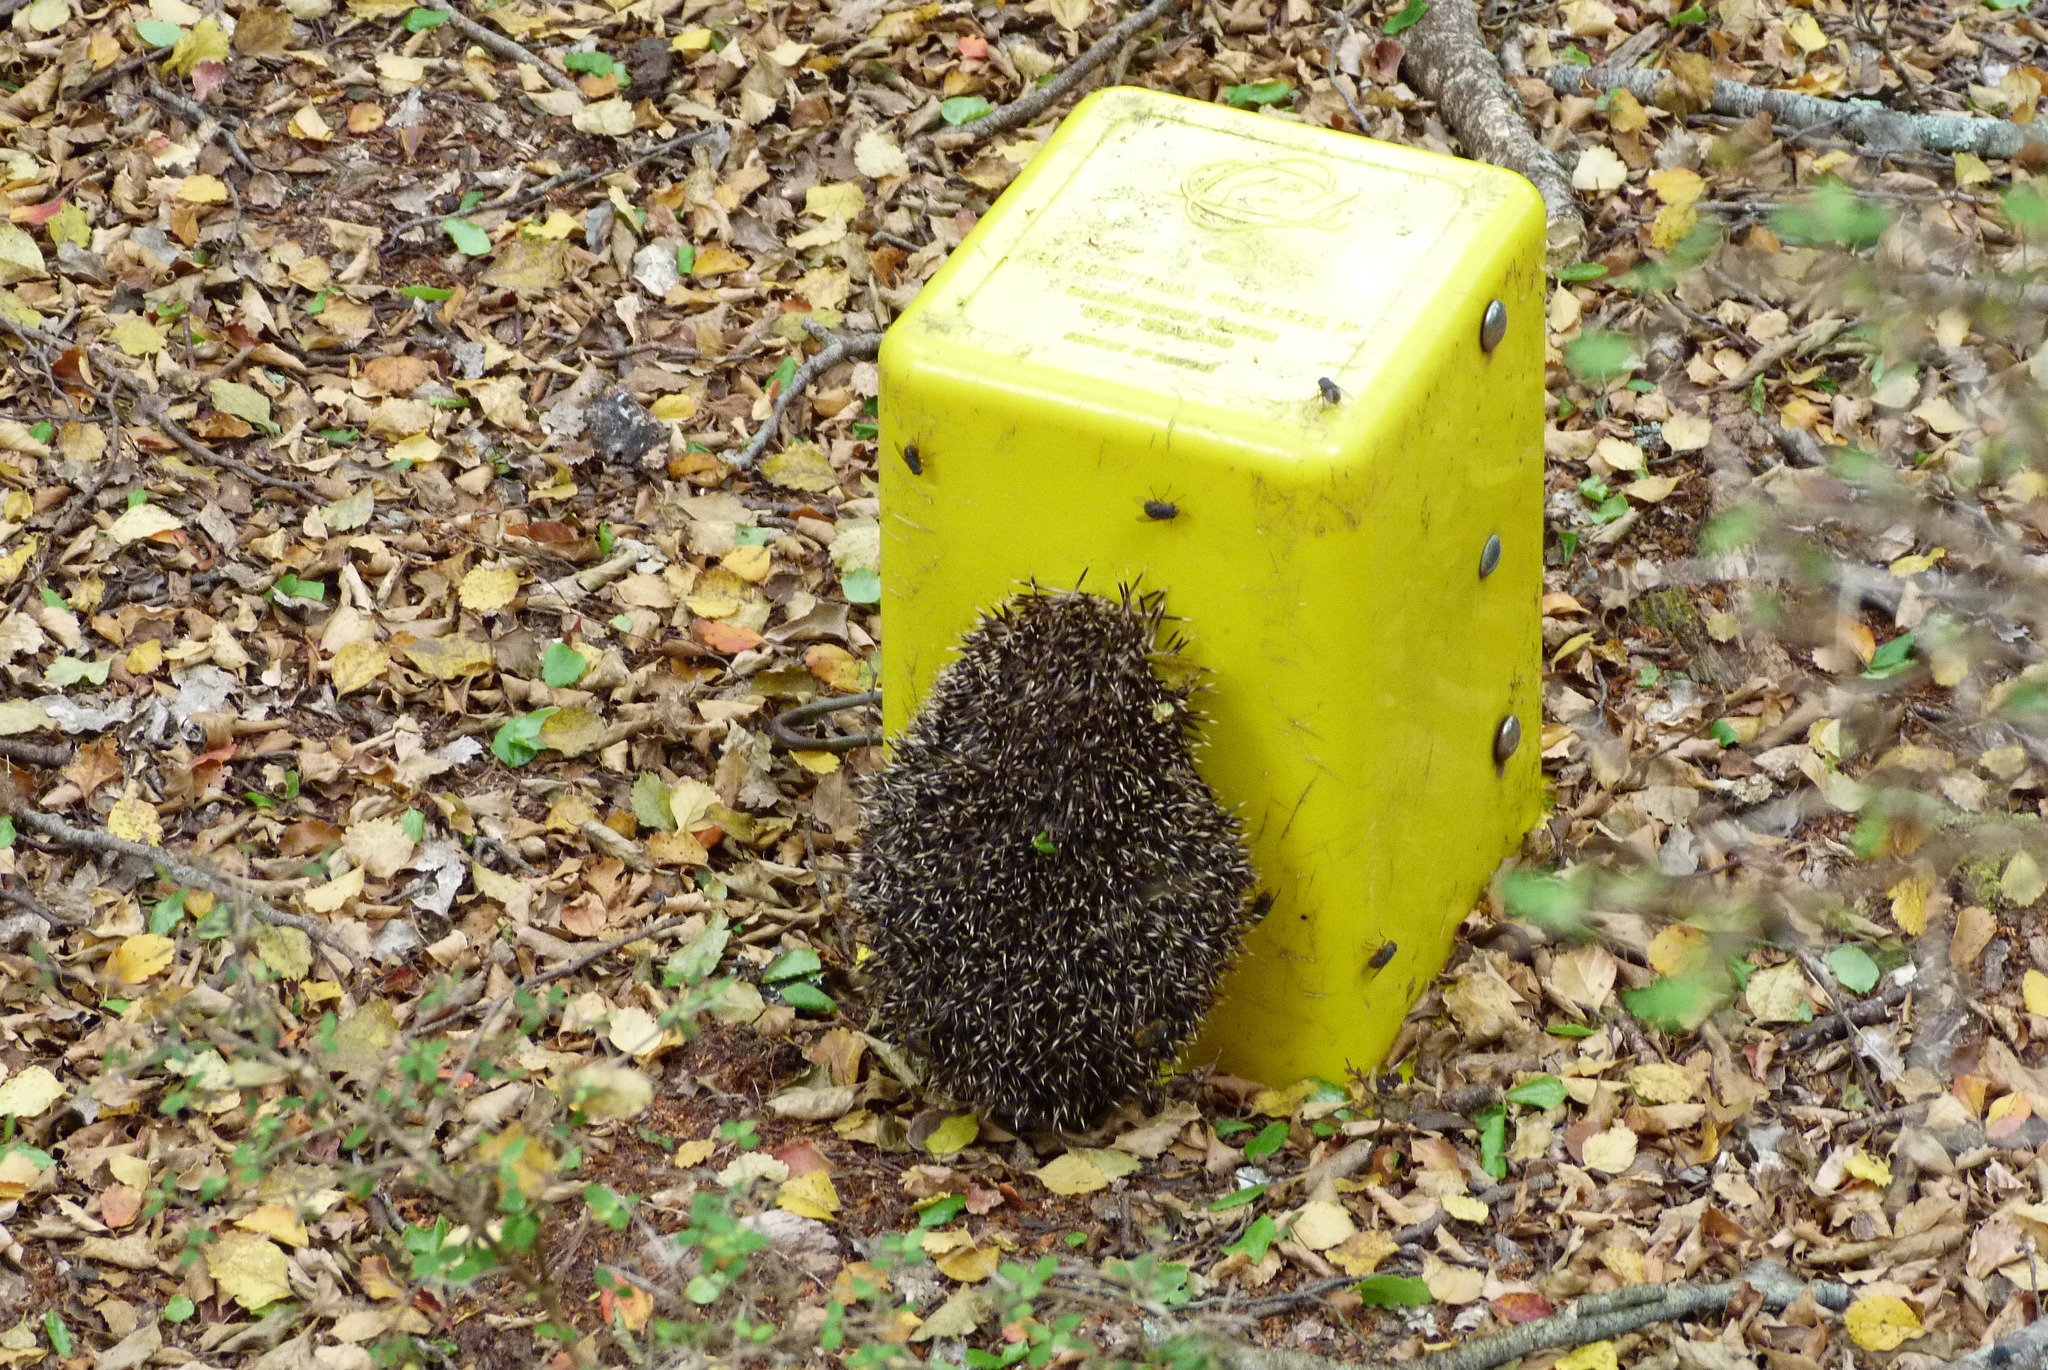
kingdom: Animalia
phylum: Chordata
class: Mammalia
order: Erinaceomorpha
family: Erinaceidae
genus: Erinaceus
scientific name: Erinaceus europaeus
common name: West european hedgehog
